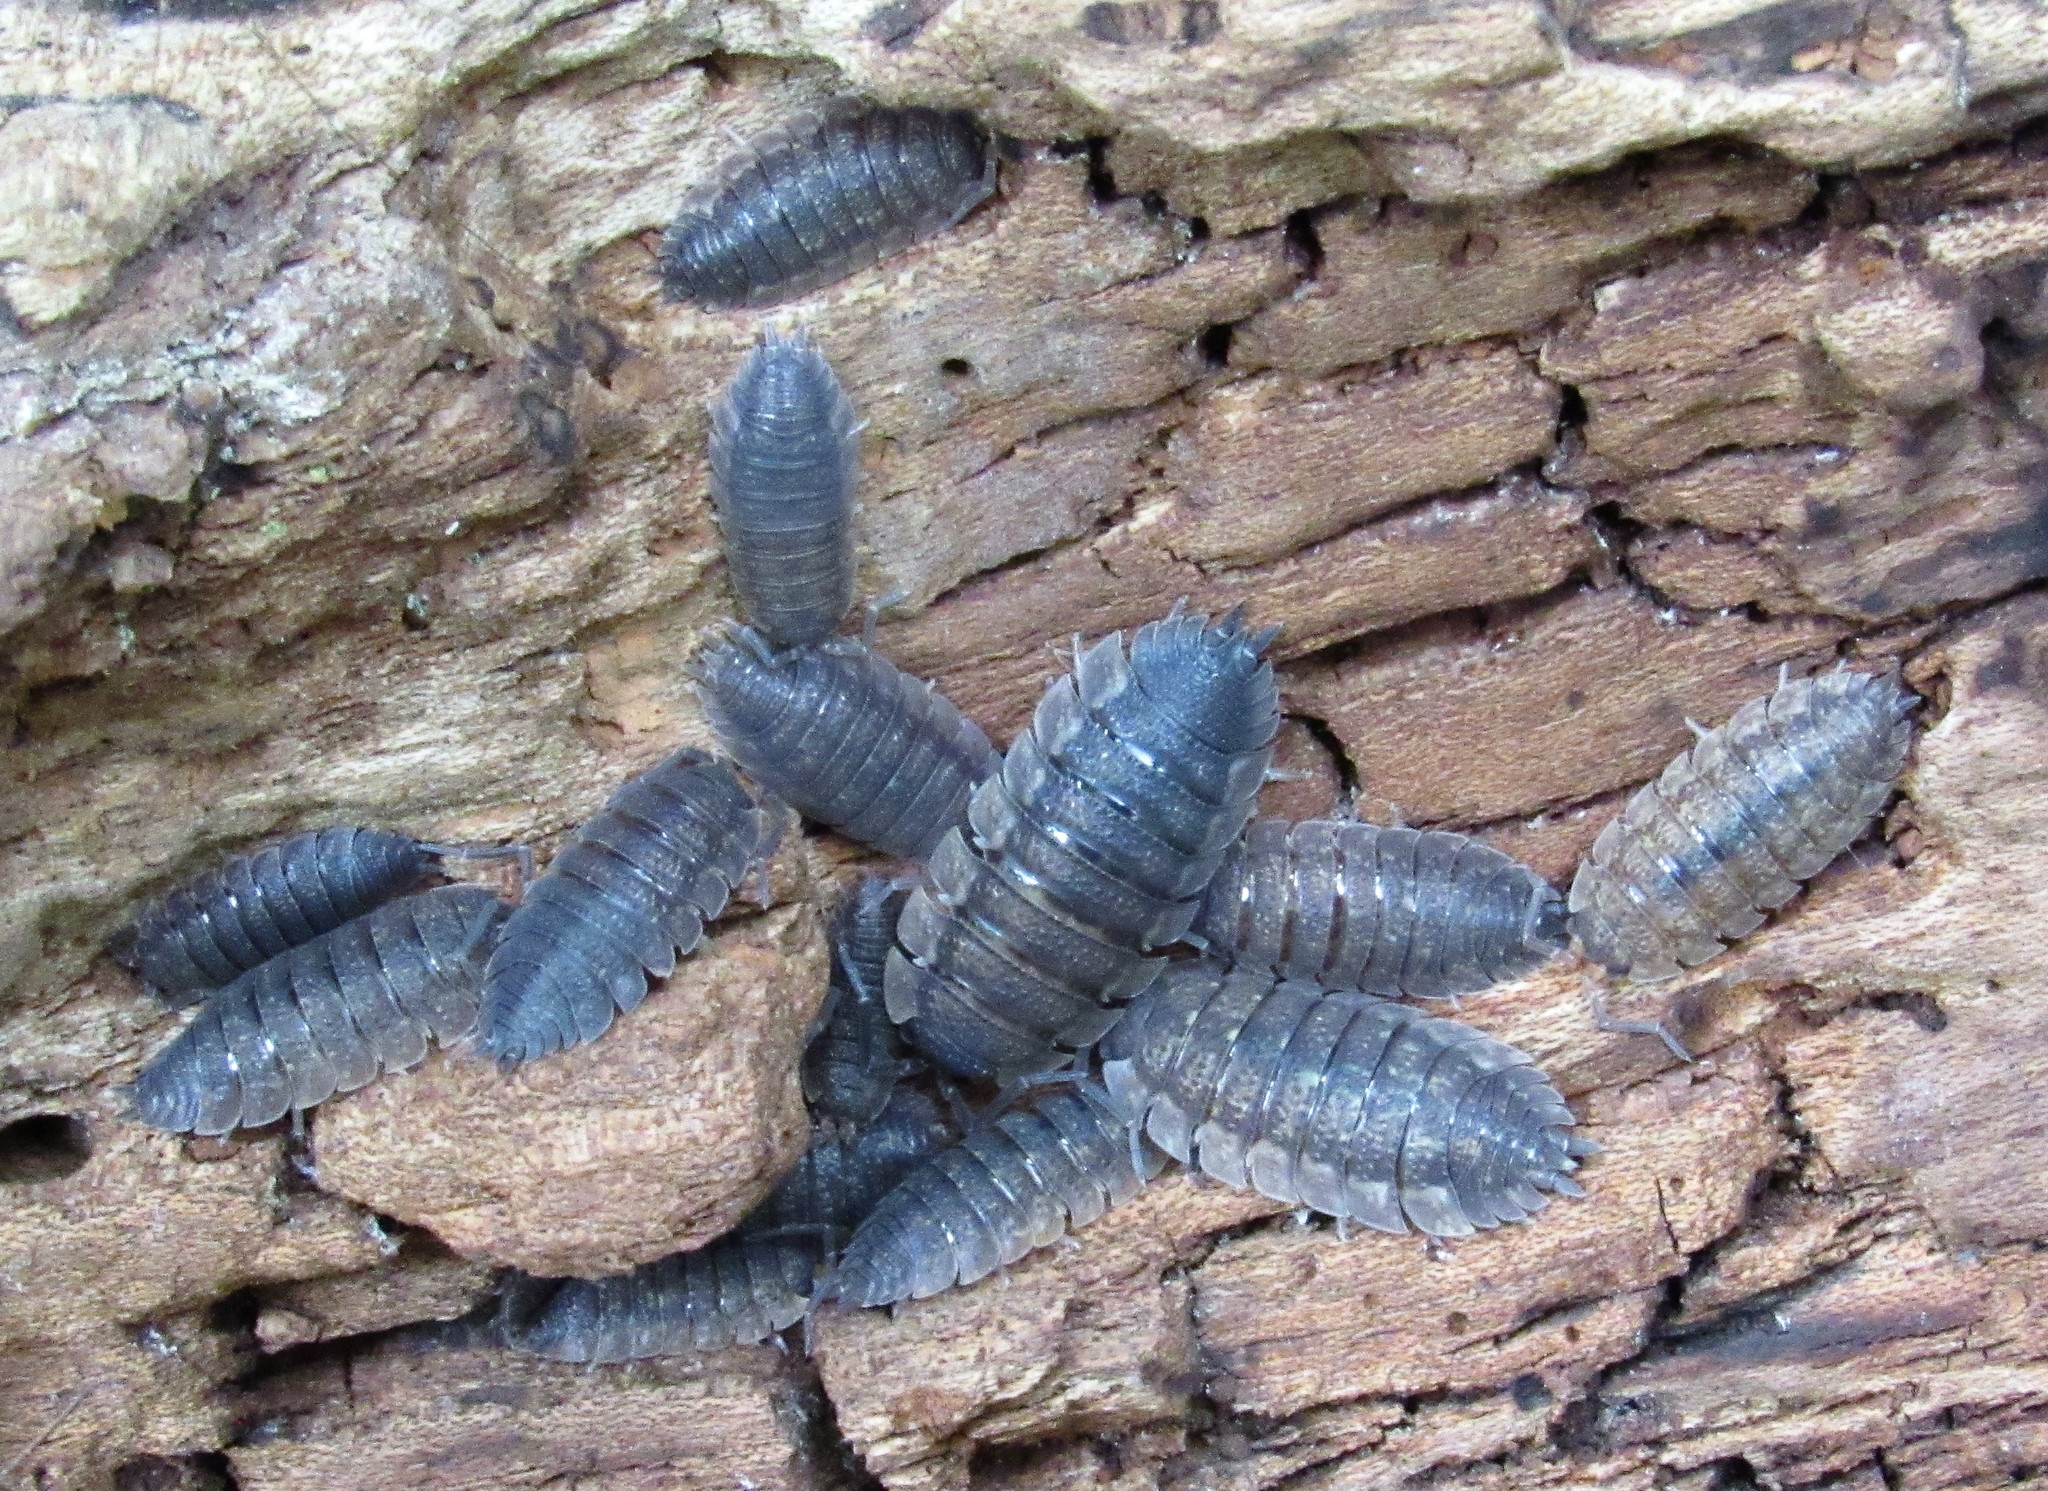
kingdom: Animalia
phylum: Arthropoda
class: Malacostraca
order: Isopoda
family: Porcellionidae
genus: Porcellio
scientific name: Porcellio scaber
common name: Common rough woodlouse
